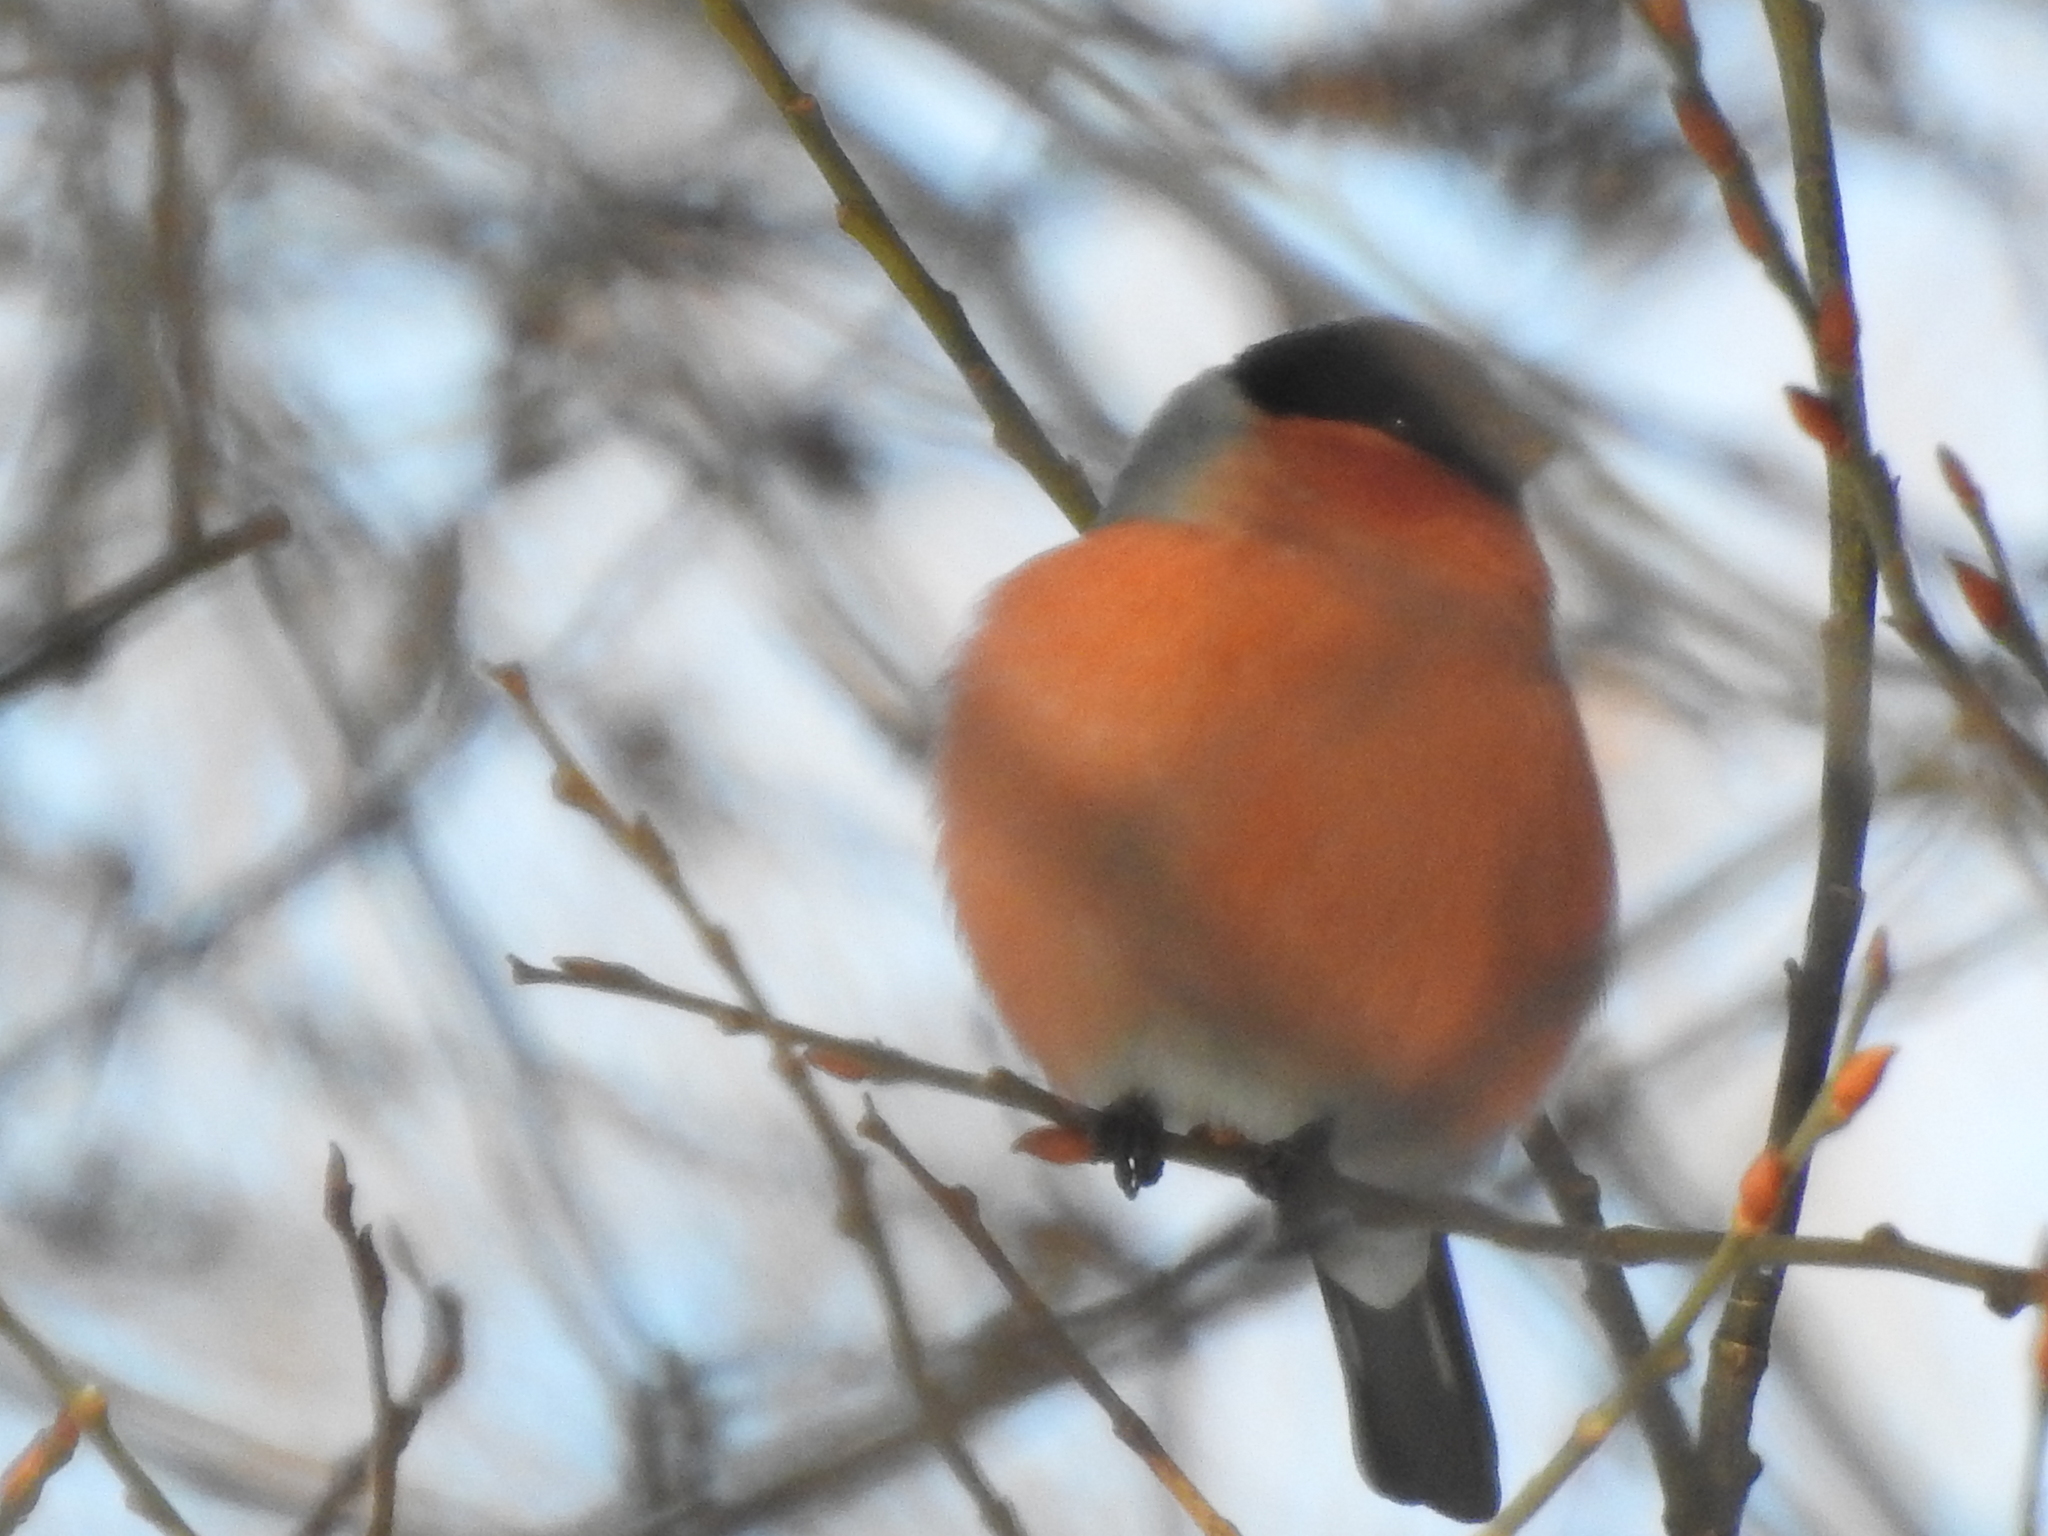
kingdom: Animalia
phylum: Chordata
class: Aves
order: Passeriformes
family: Fringillidae
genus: Pyrrhula
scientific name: Pyrrhula pyrrhula
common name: Eurasian bullfinch
